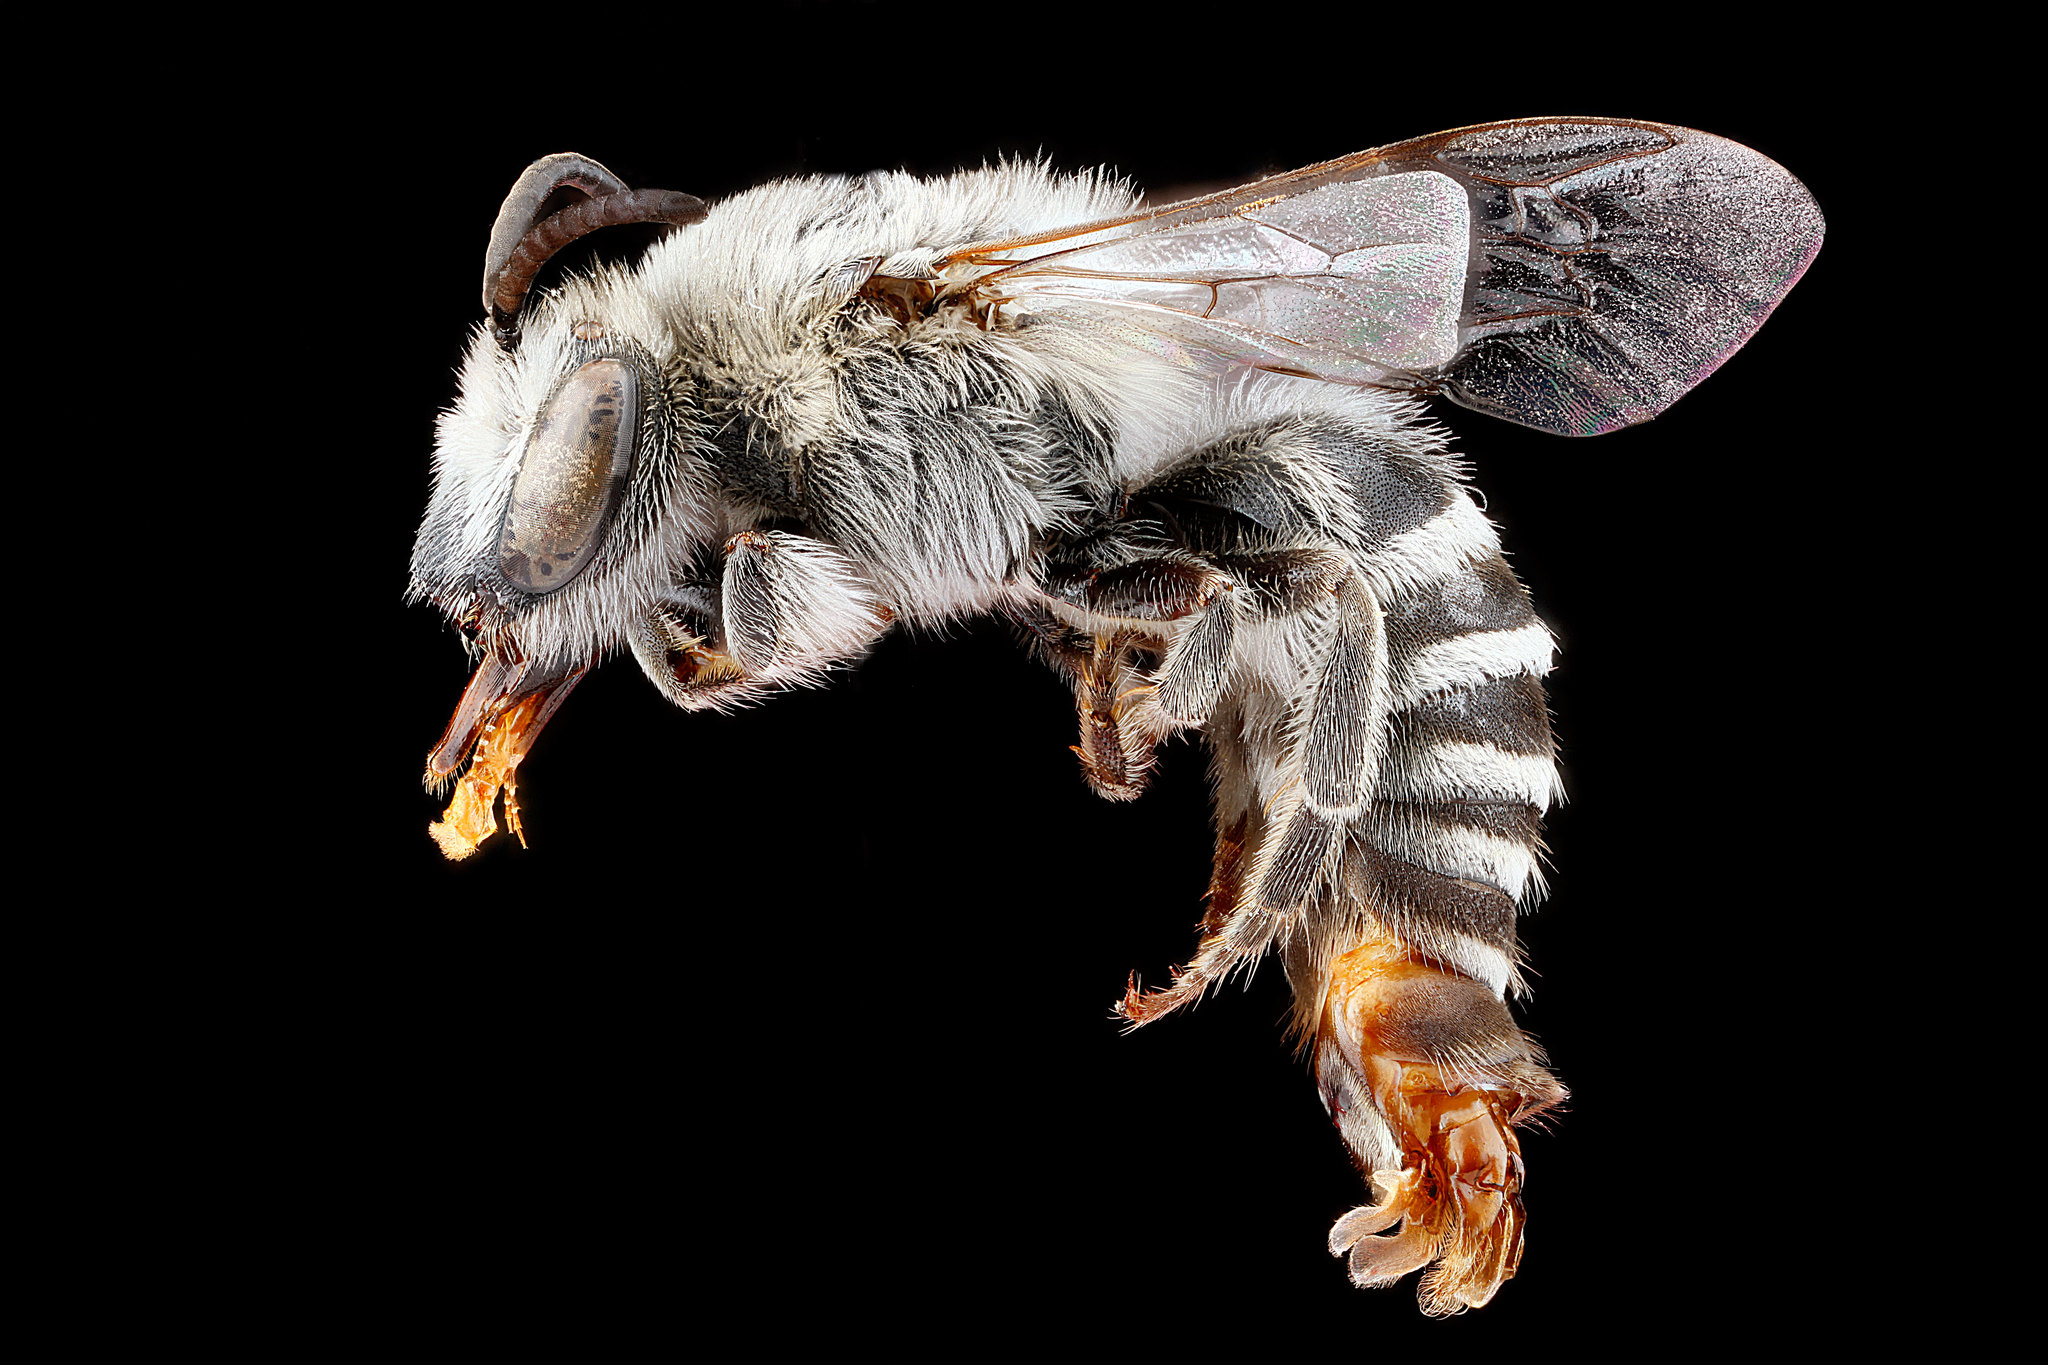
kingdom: Animalia
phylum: Arthropoda
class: Insecta
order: Hymenoptera
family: Colletidae
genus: Colletes
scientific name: Colletes willistoni
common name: Williston's cellophane bee
